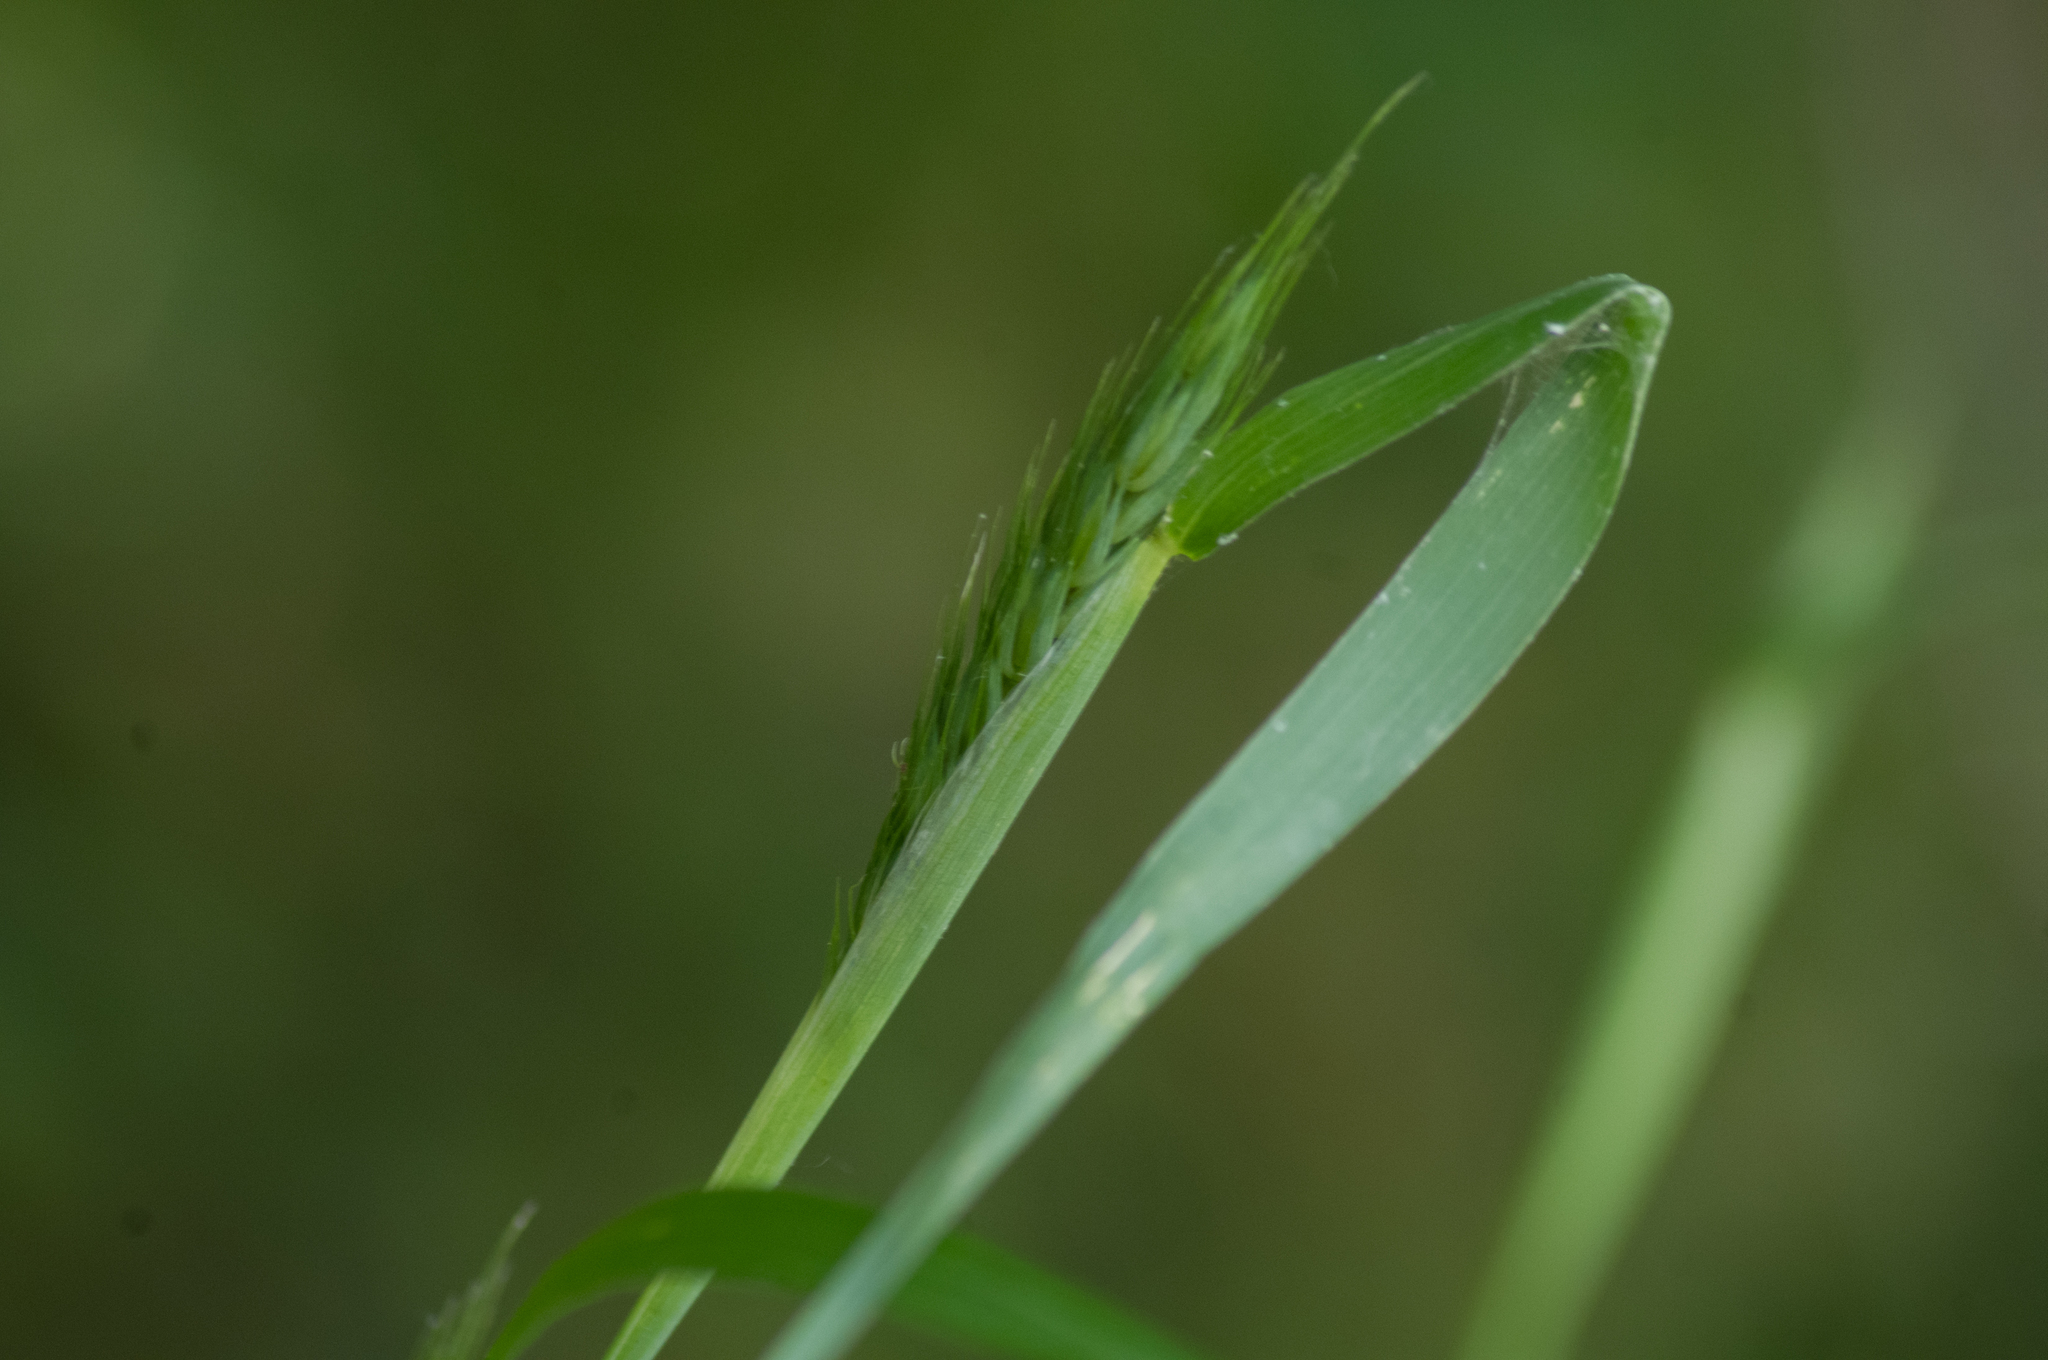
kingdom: Plantae
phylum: Tracheophyta
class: Liliopsida
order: Poales
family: Poaceae
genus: Elymus
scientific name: Elymus virginicus
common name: Common eastern wildrye
